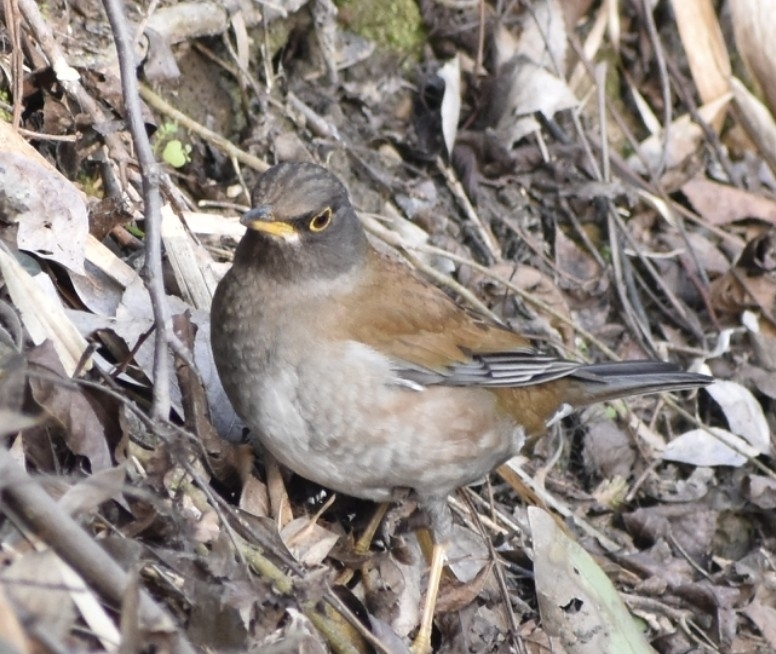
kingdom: Animalia
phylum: Chordata
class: Aves
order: Passeriformes
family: Turdidae
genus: Turdus
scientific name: Turdus pallidus
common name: Pale thrush
